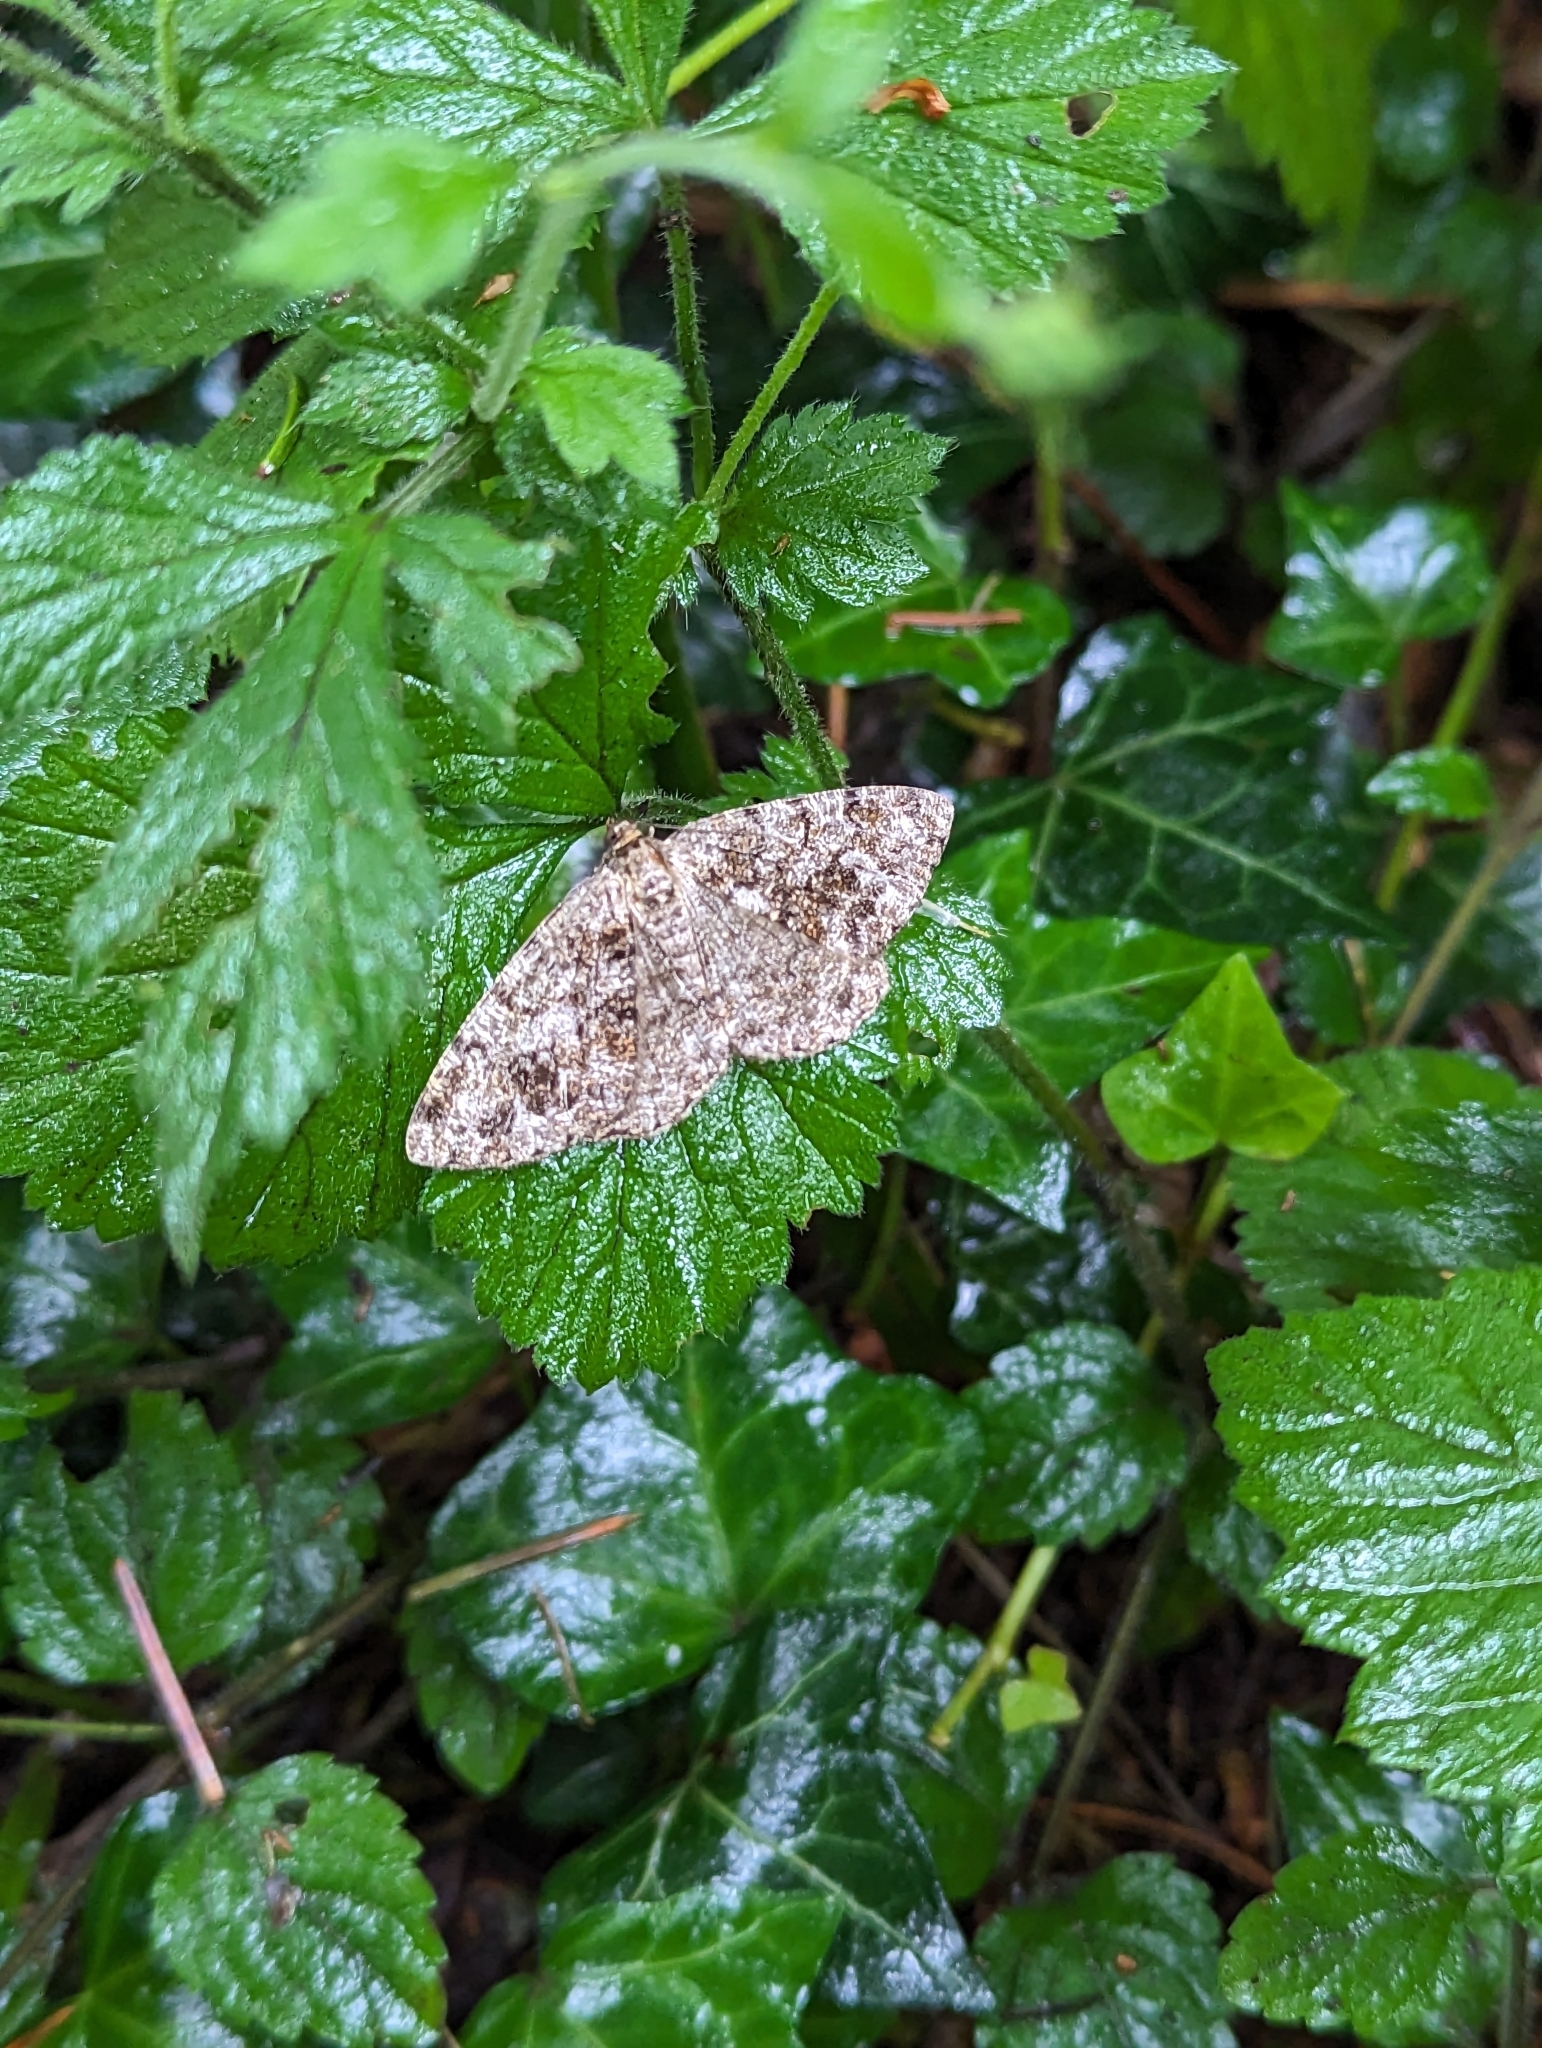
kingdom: Animalia
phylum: Arthropoda
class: Insecta
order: Lepidoptera
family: Geometridae
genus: Deileptenia
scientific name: Deileptenia ribeata
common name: Satin beauty
